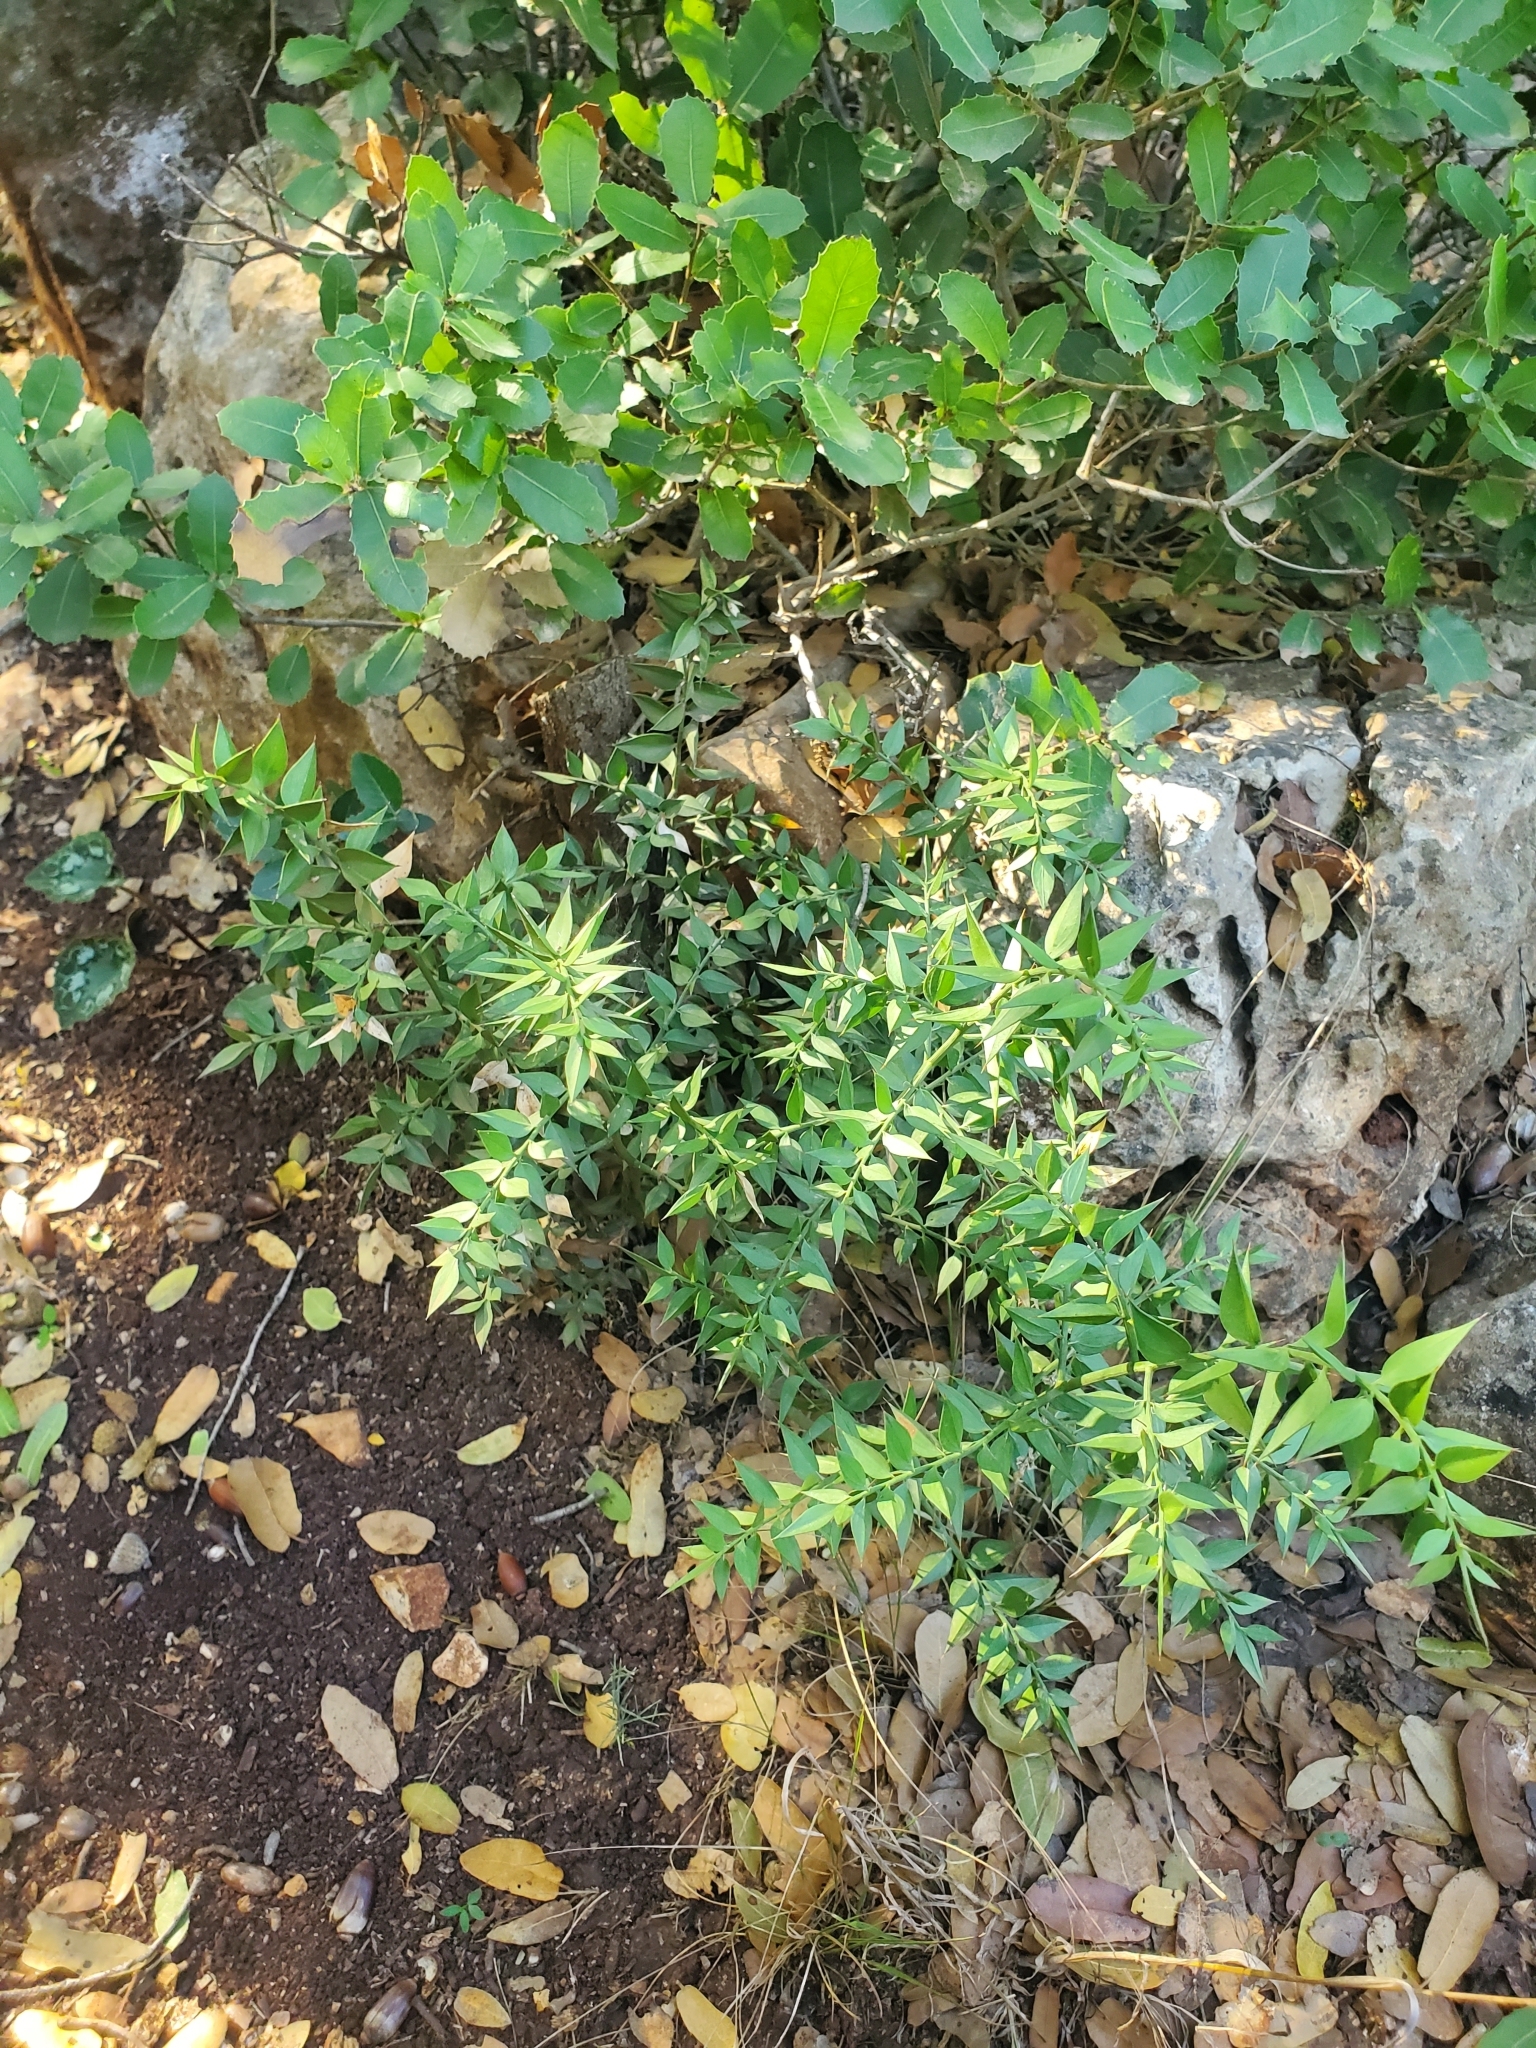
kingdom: Plantae
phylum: Tracheophyta
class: Liliopsida
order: Asparagales
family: Asparagaceae
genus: Ruscus
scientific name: Ruscus aculeatus
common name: Butcher's-broom
